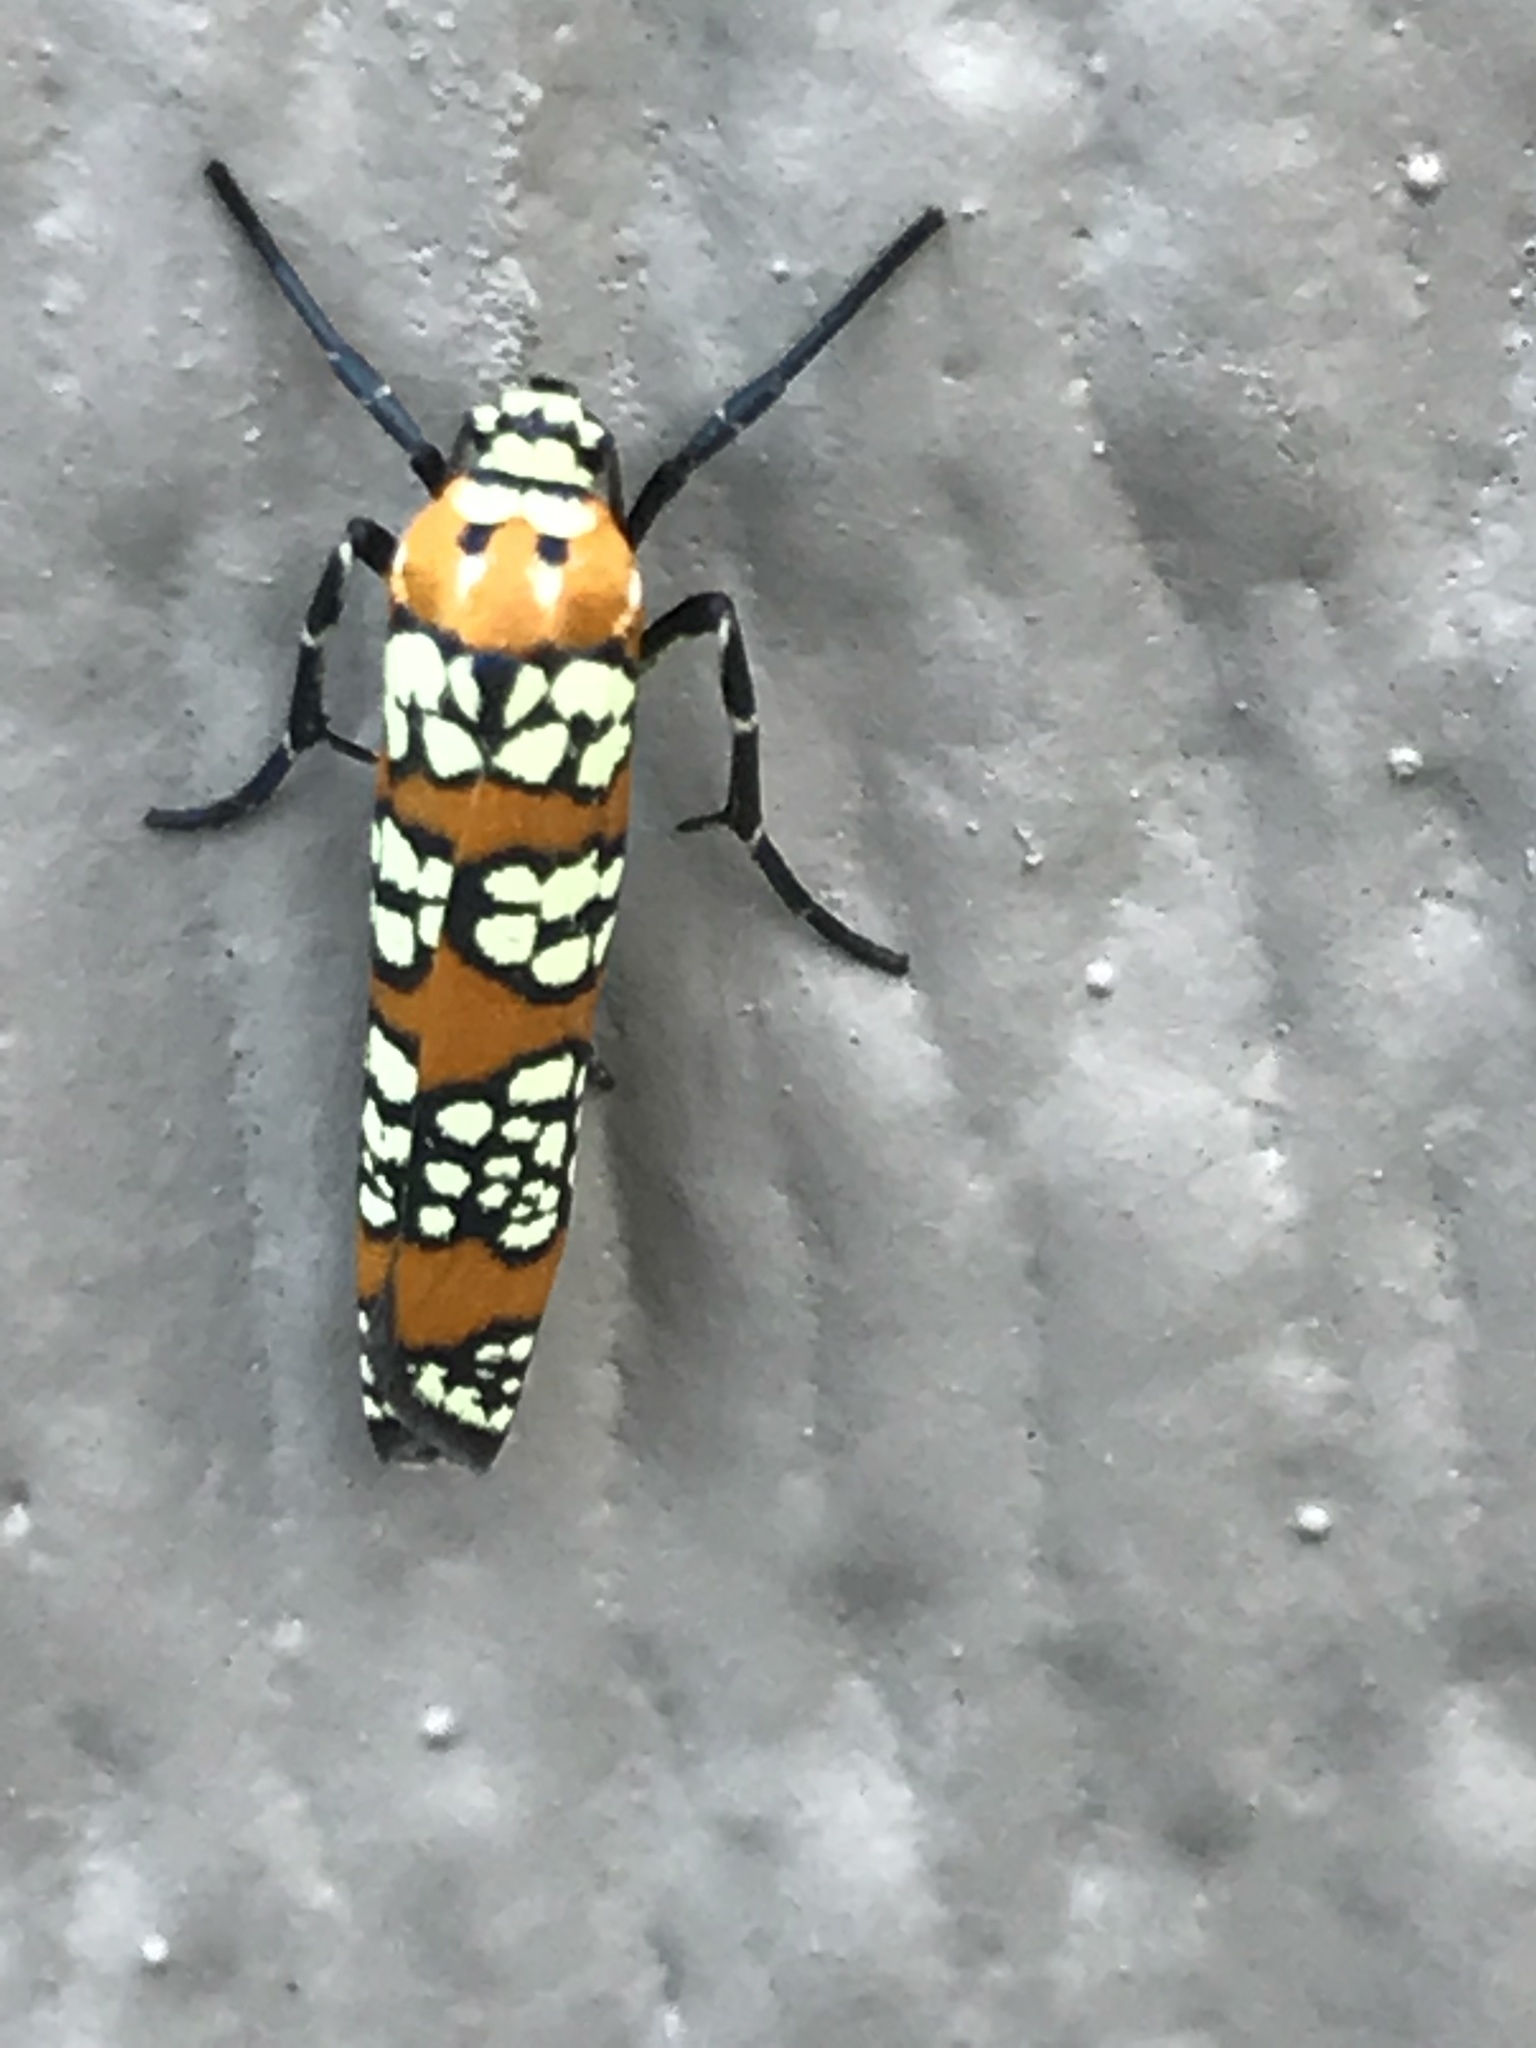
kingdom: Animalia
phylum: Arthropoda
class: Insecta
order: Lepidoptera
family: Attevidae
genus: Atteva
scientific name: Atteva punctella
